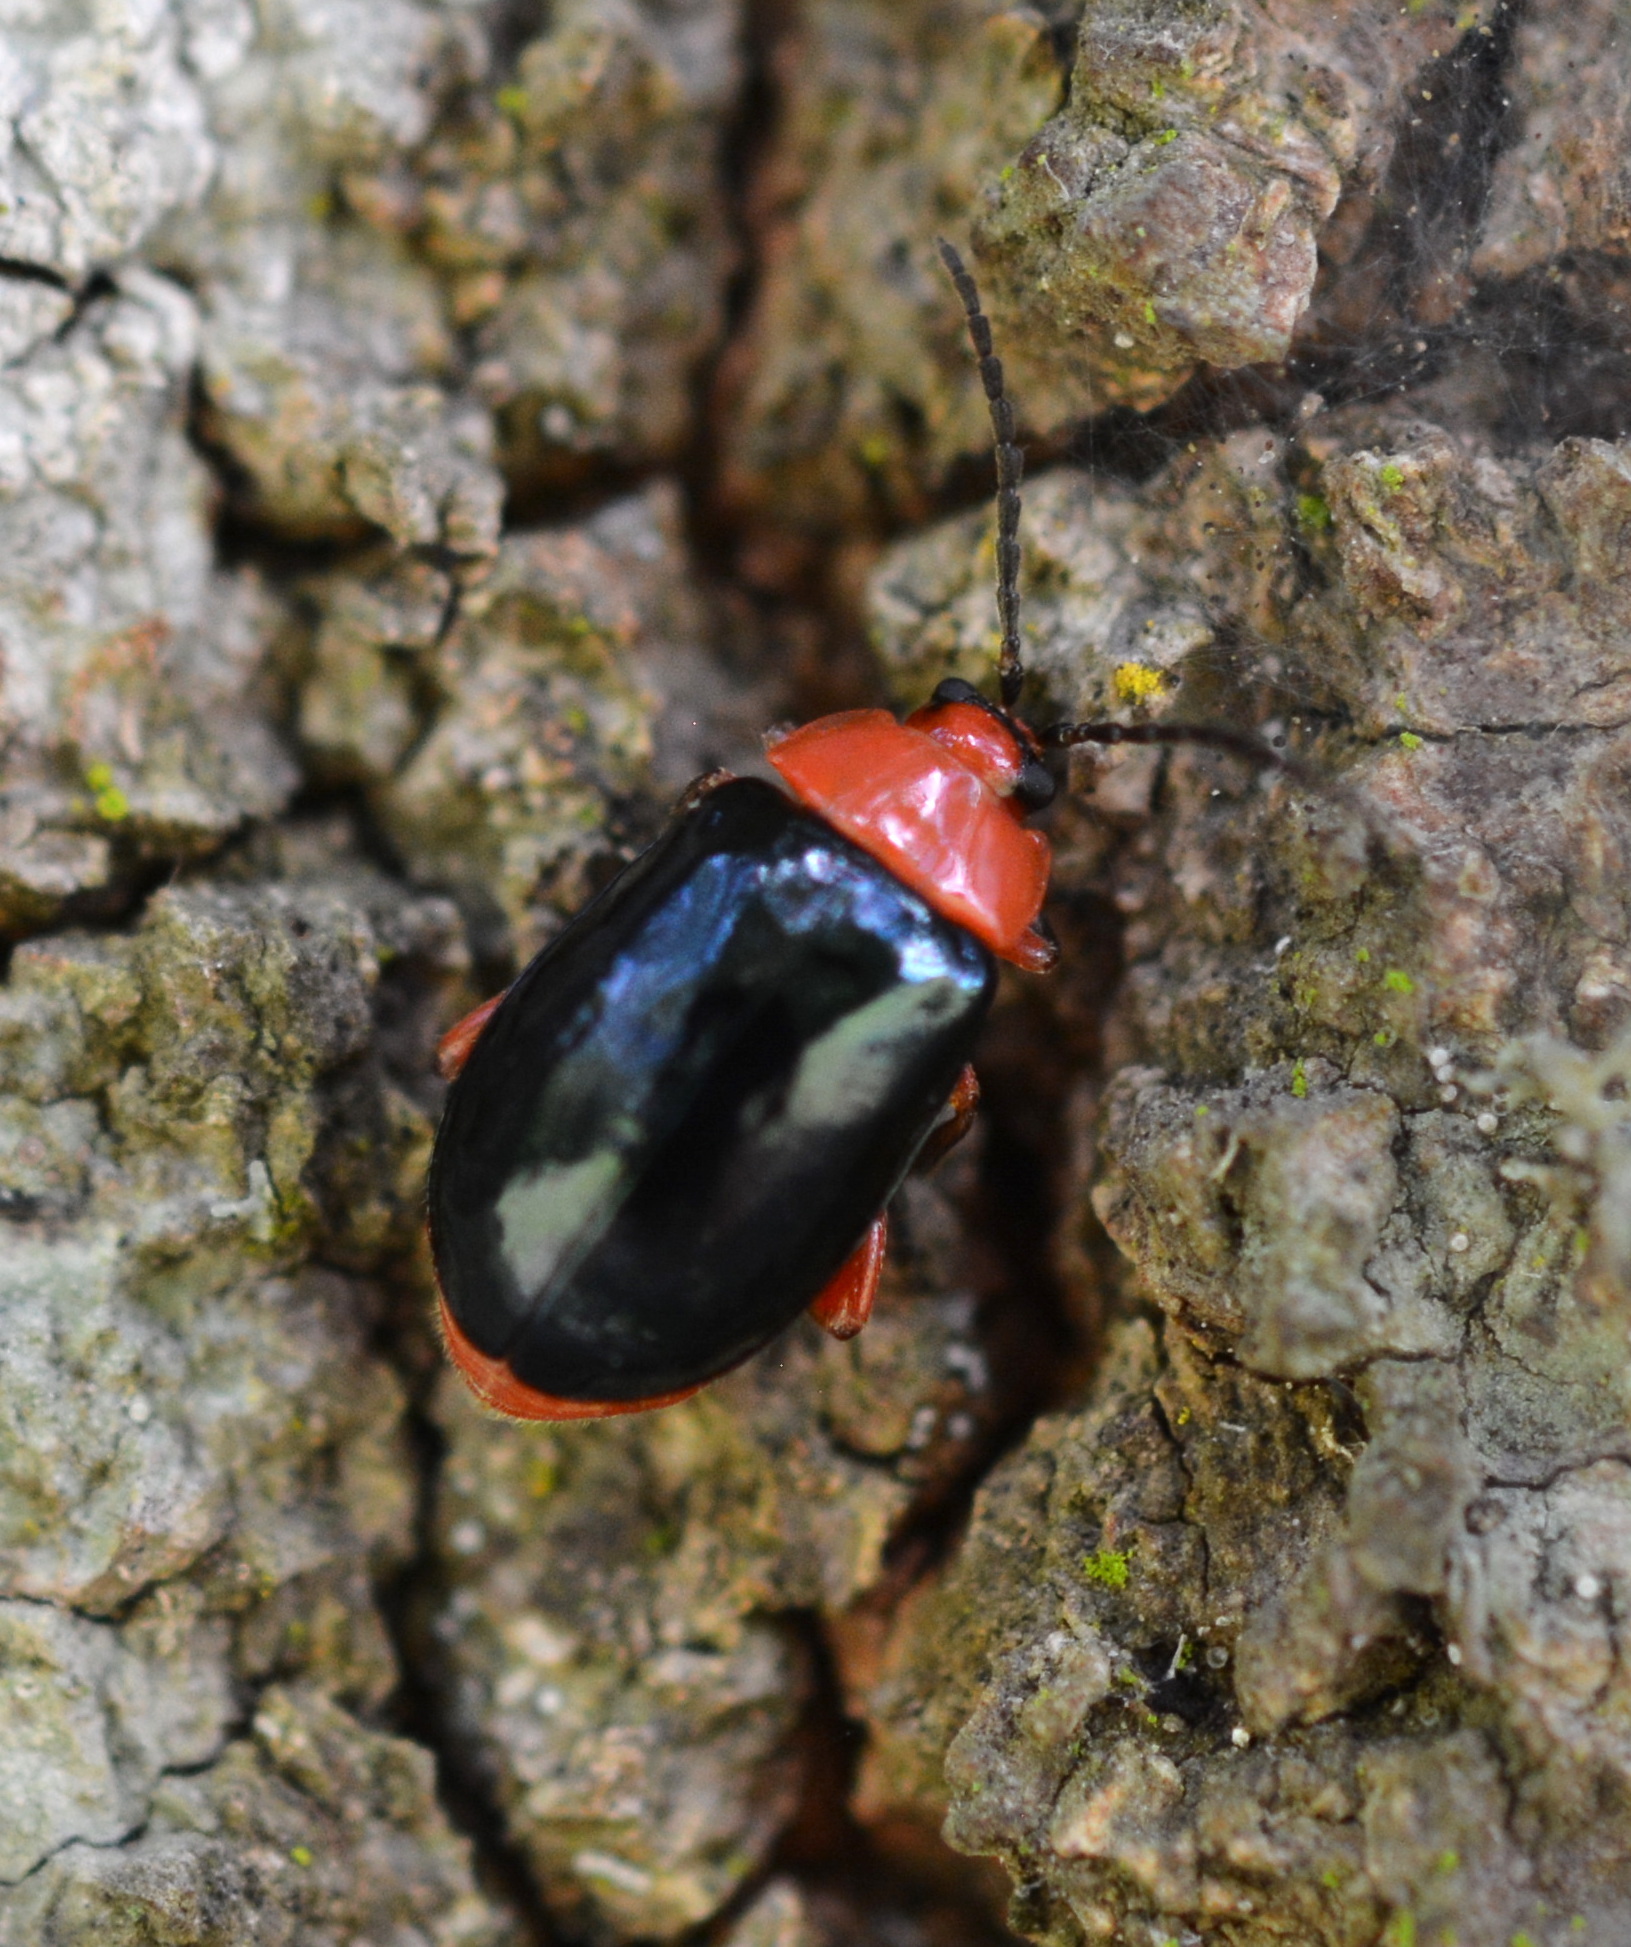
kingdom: Animalia
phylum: Arthropoda
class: Insecta
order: Coleoptera
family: Chrysomelidae
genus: Asphaera
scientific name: Asphaera lustrans
